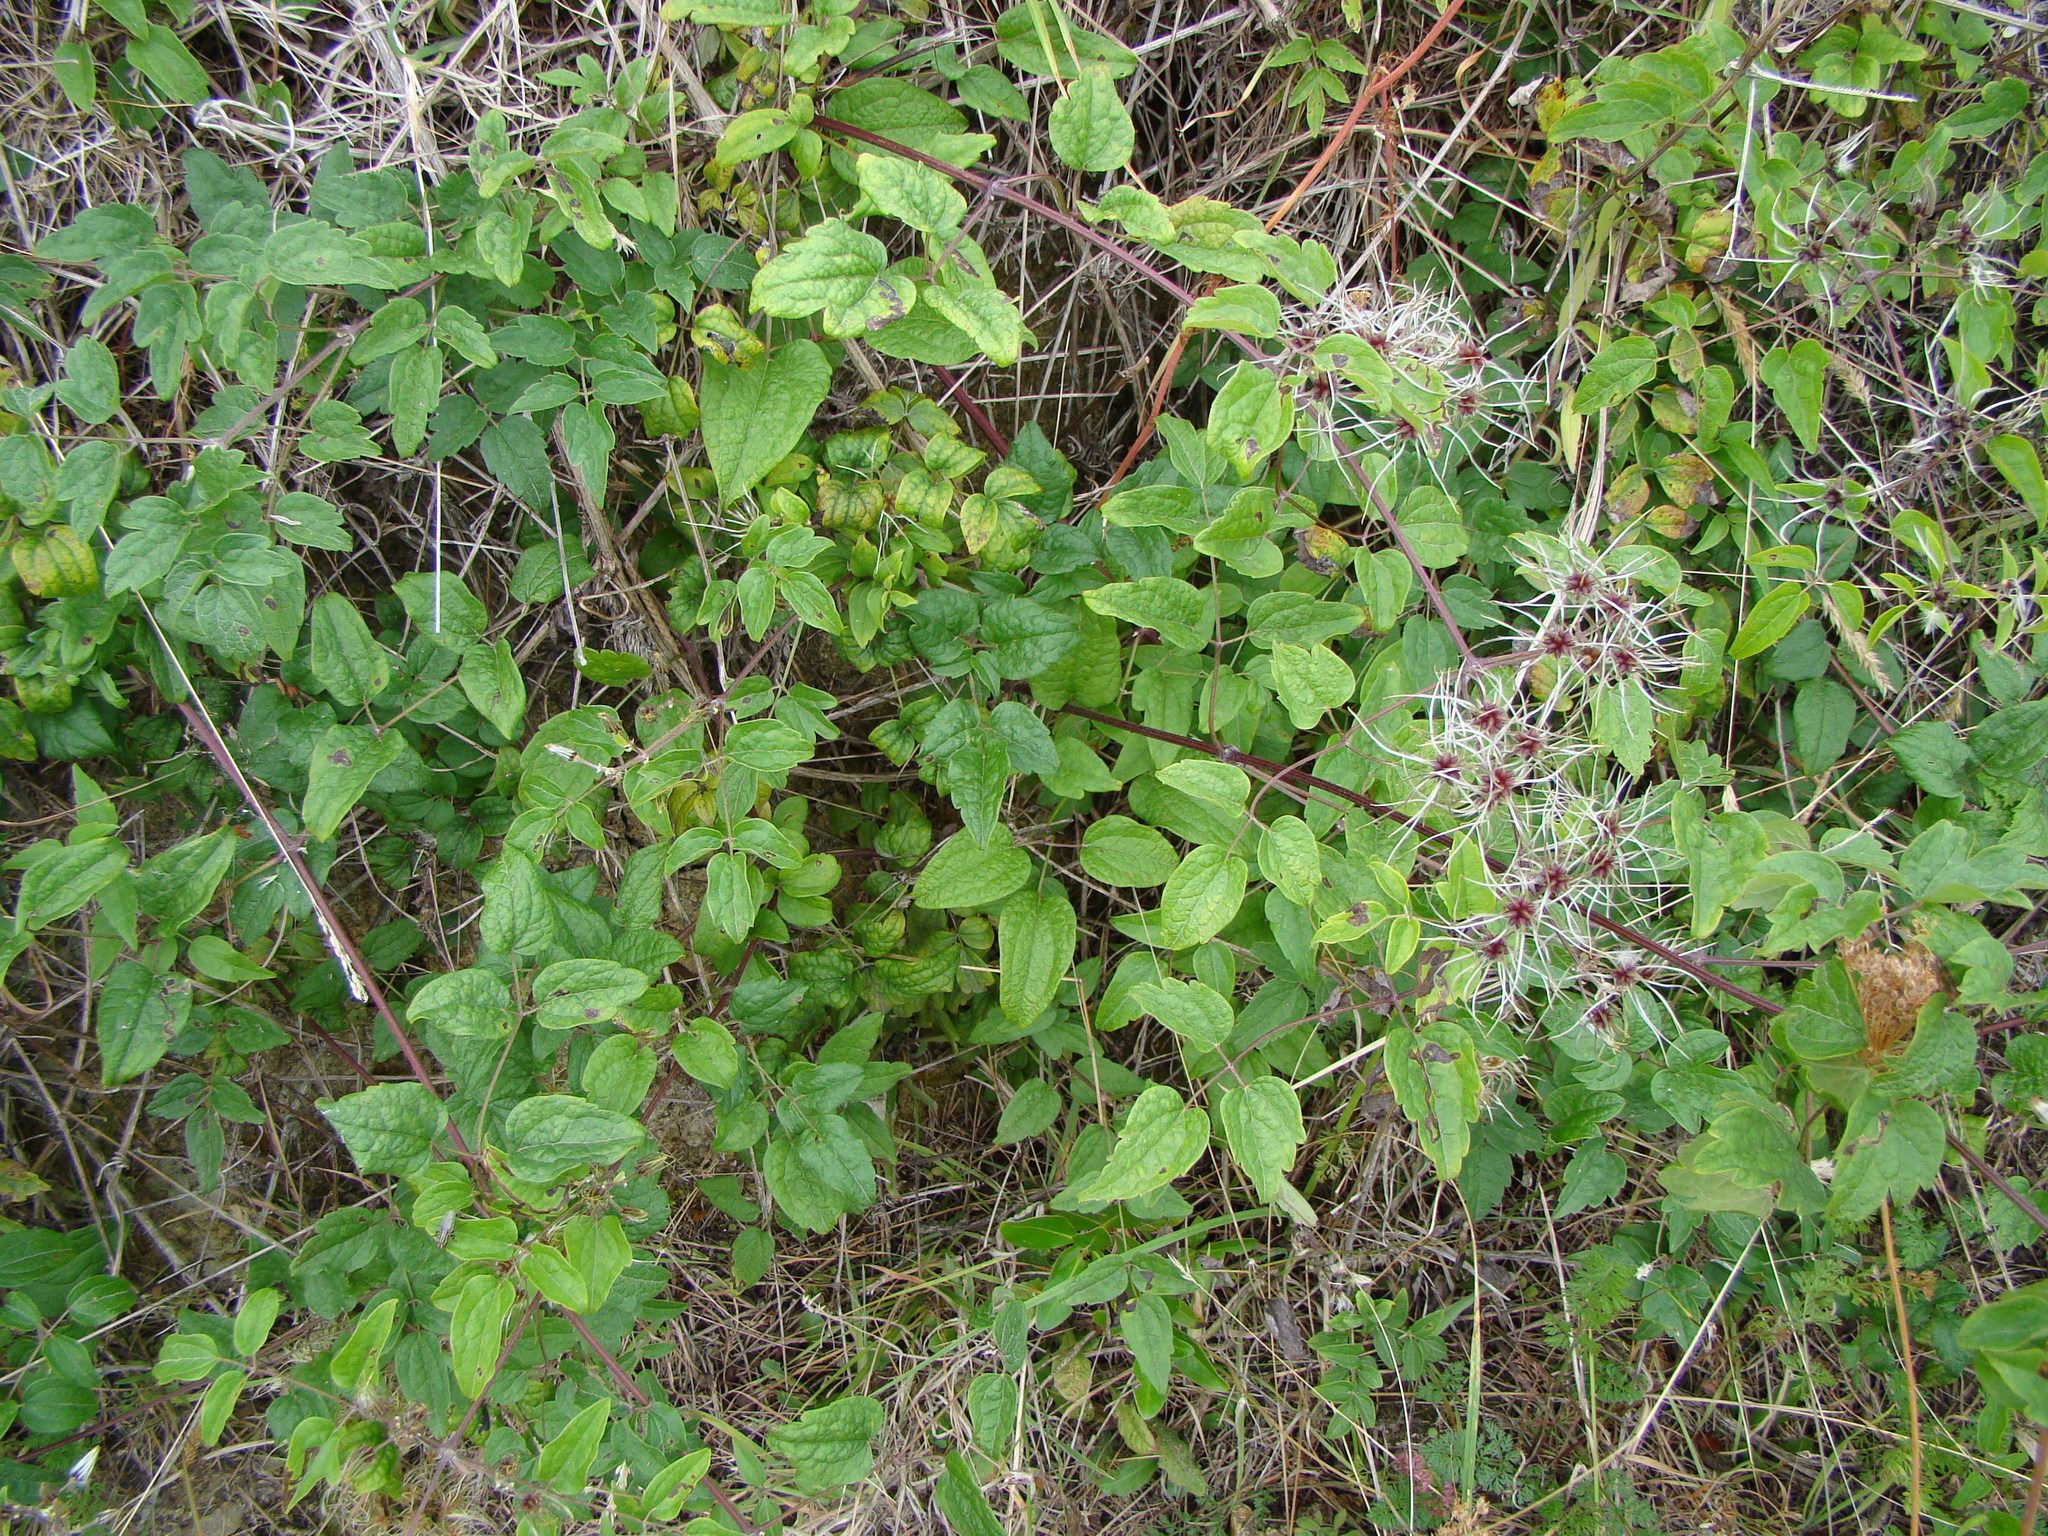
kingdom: Plantae
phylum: Tracheophyta
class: Magnoliopsida
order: Ranunculales
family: Ranunculaceae
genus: Clematis
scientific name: Clematis vitalba
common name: Evergreen clematis
